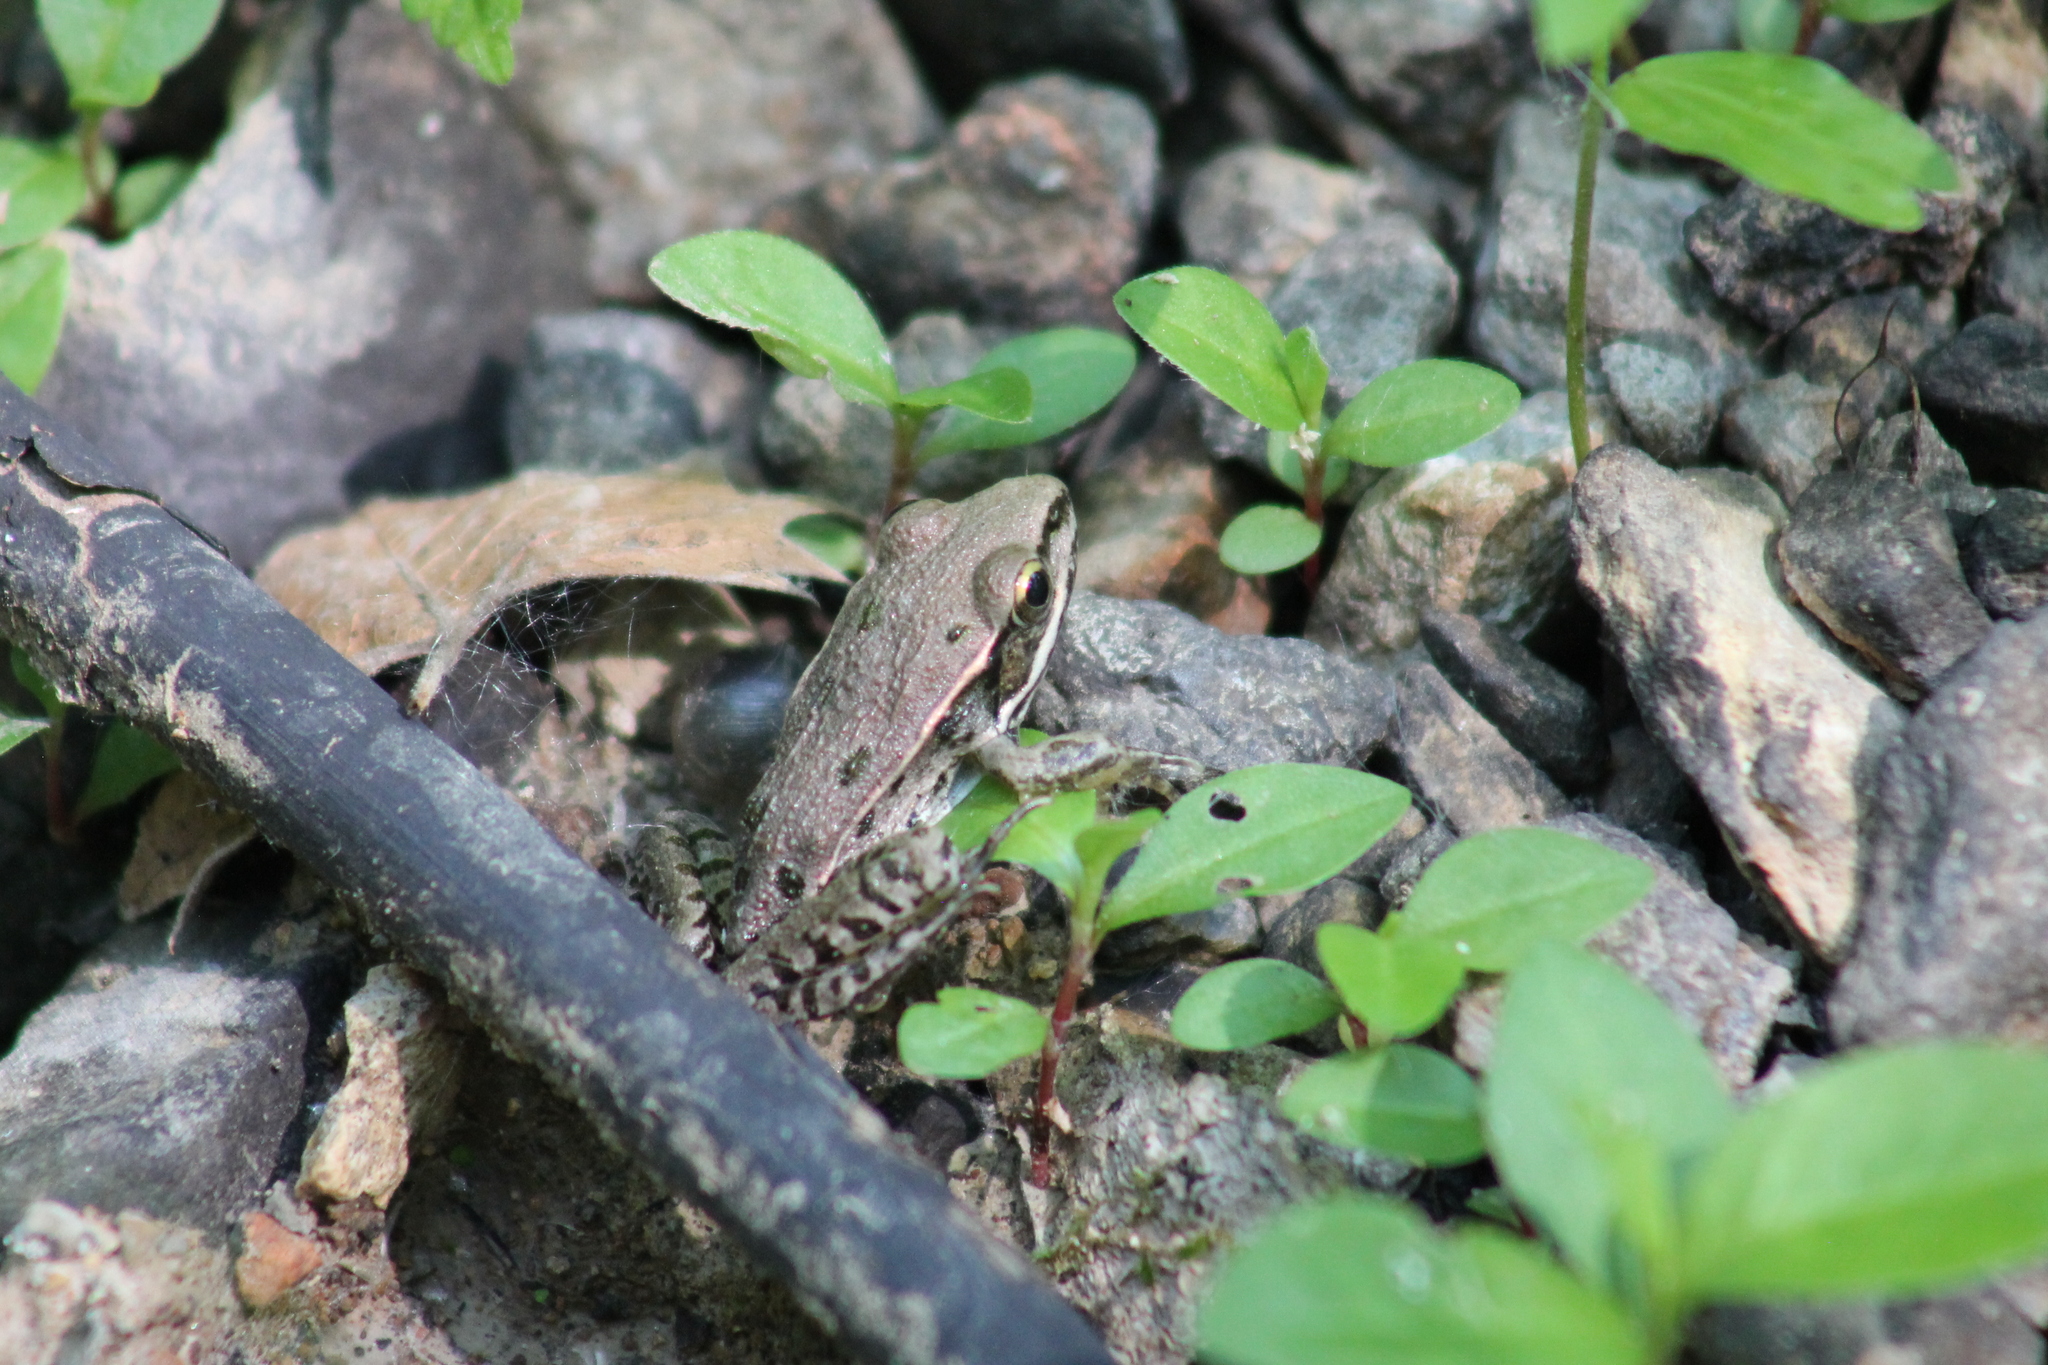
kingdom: Animalia
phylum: Chordata
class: Amphibia
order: Anura
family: Ranidae
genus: Lithobates
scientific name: Lithobates sphenocephalus
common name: Southern leopard frog
